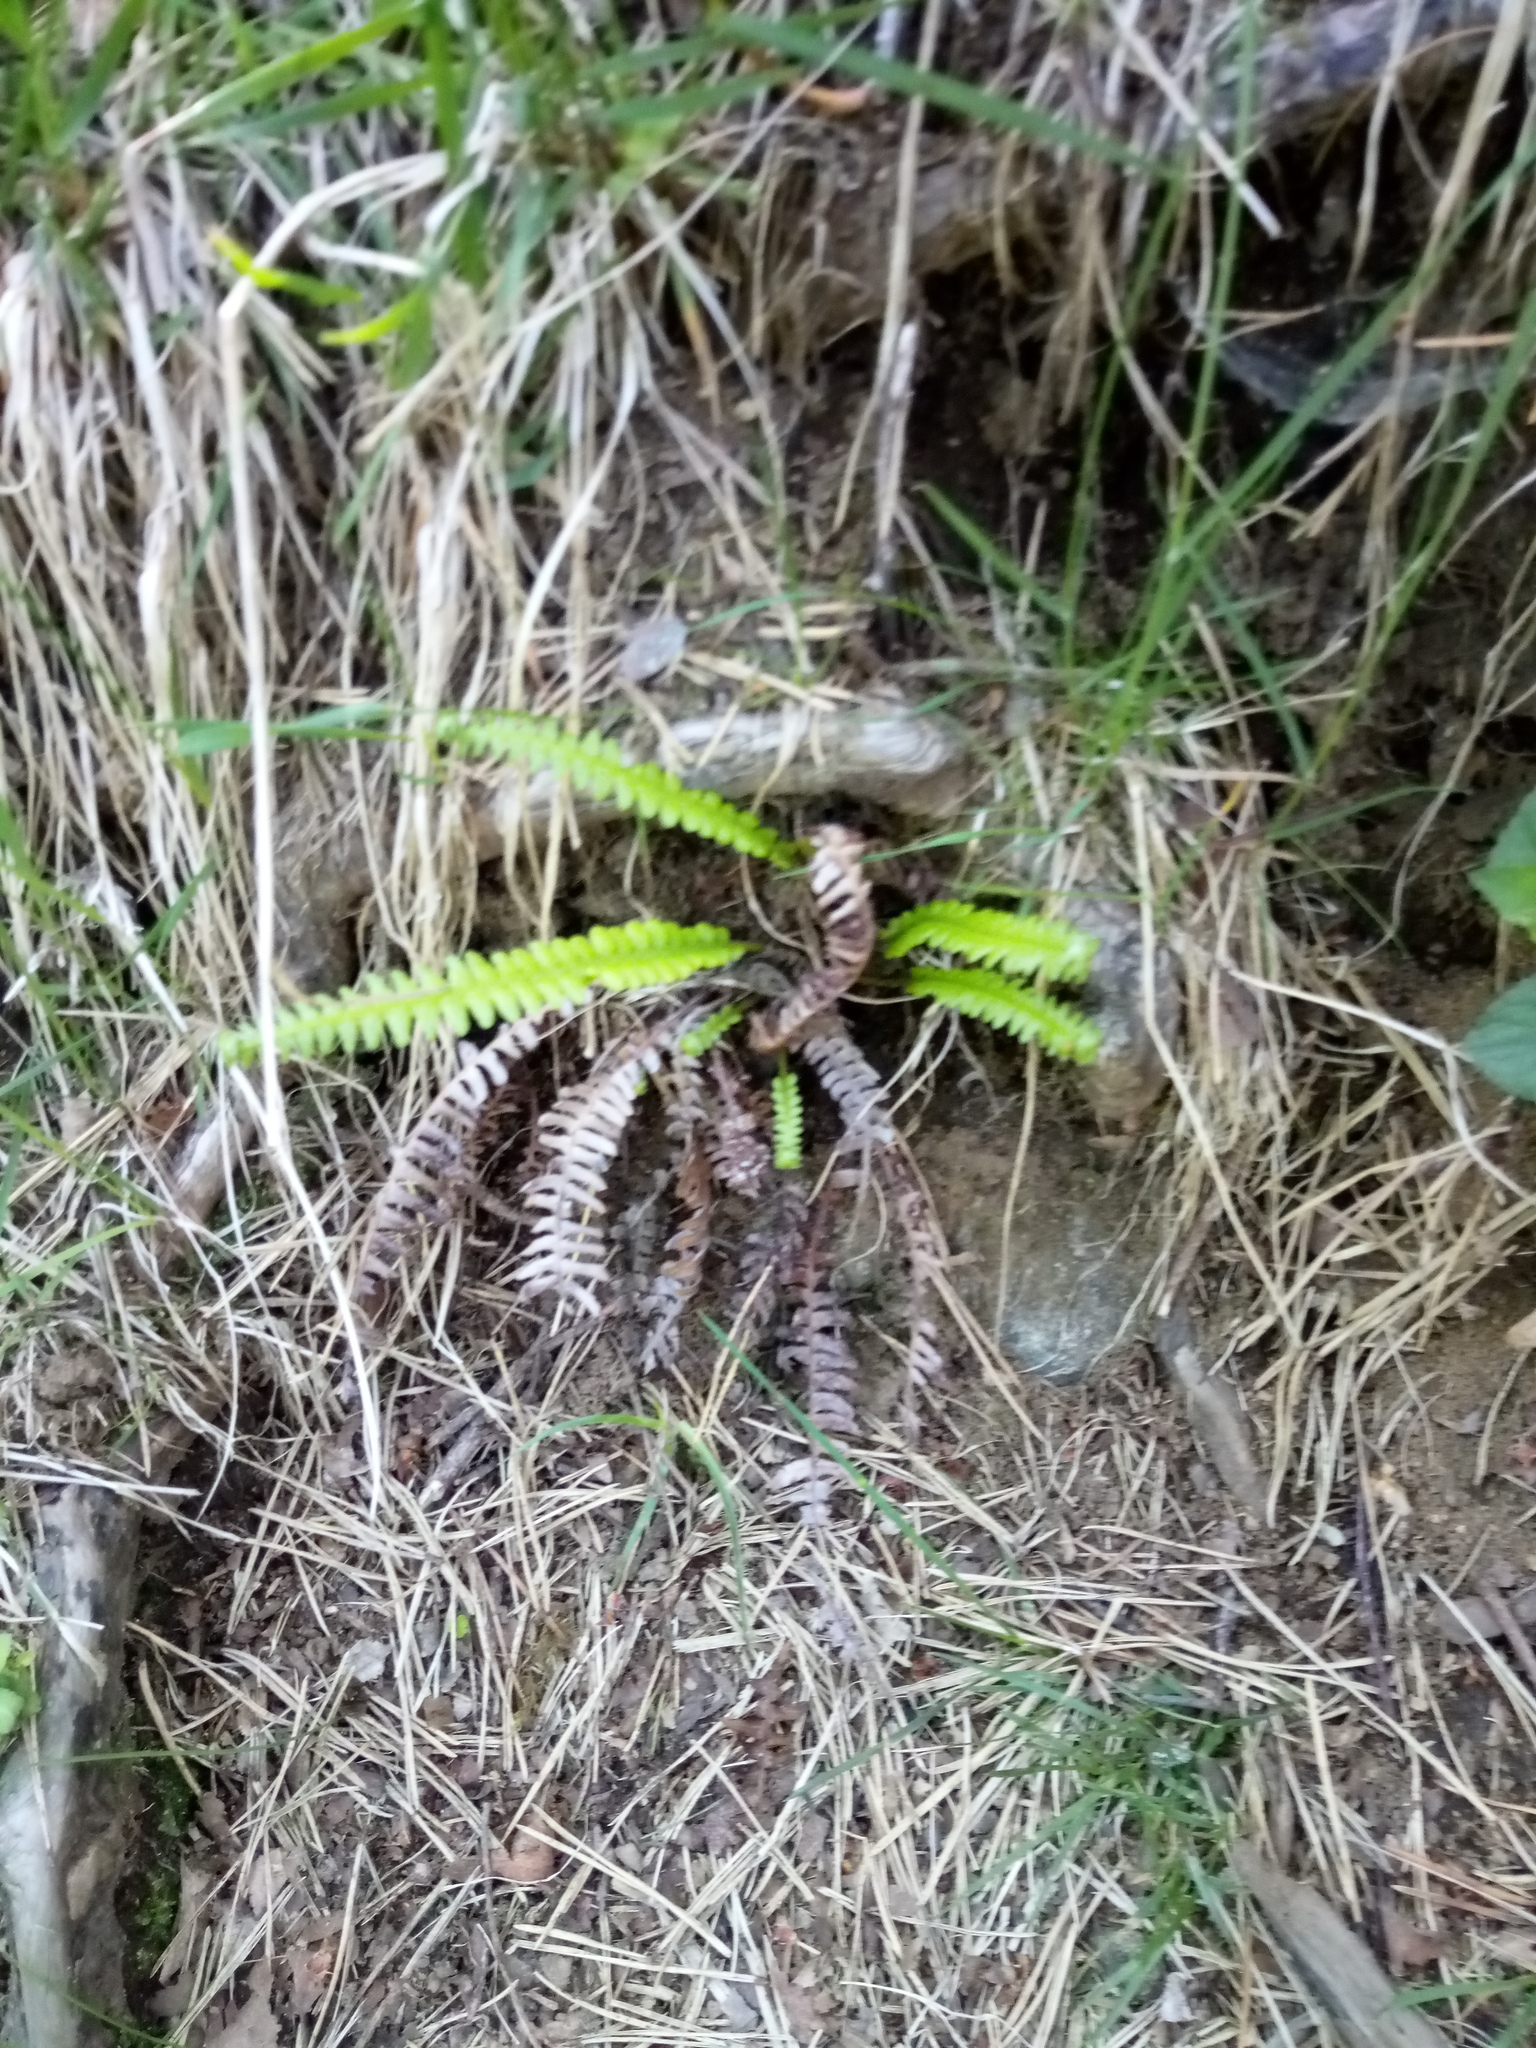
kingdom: Plantae
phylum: Tracheophyta
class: Polypodiopsida
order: Polypodiales
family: Blechnaceae
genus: Struthiopteris
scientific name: Struthiopteris spicant
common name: Deer fern
